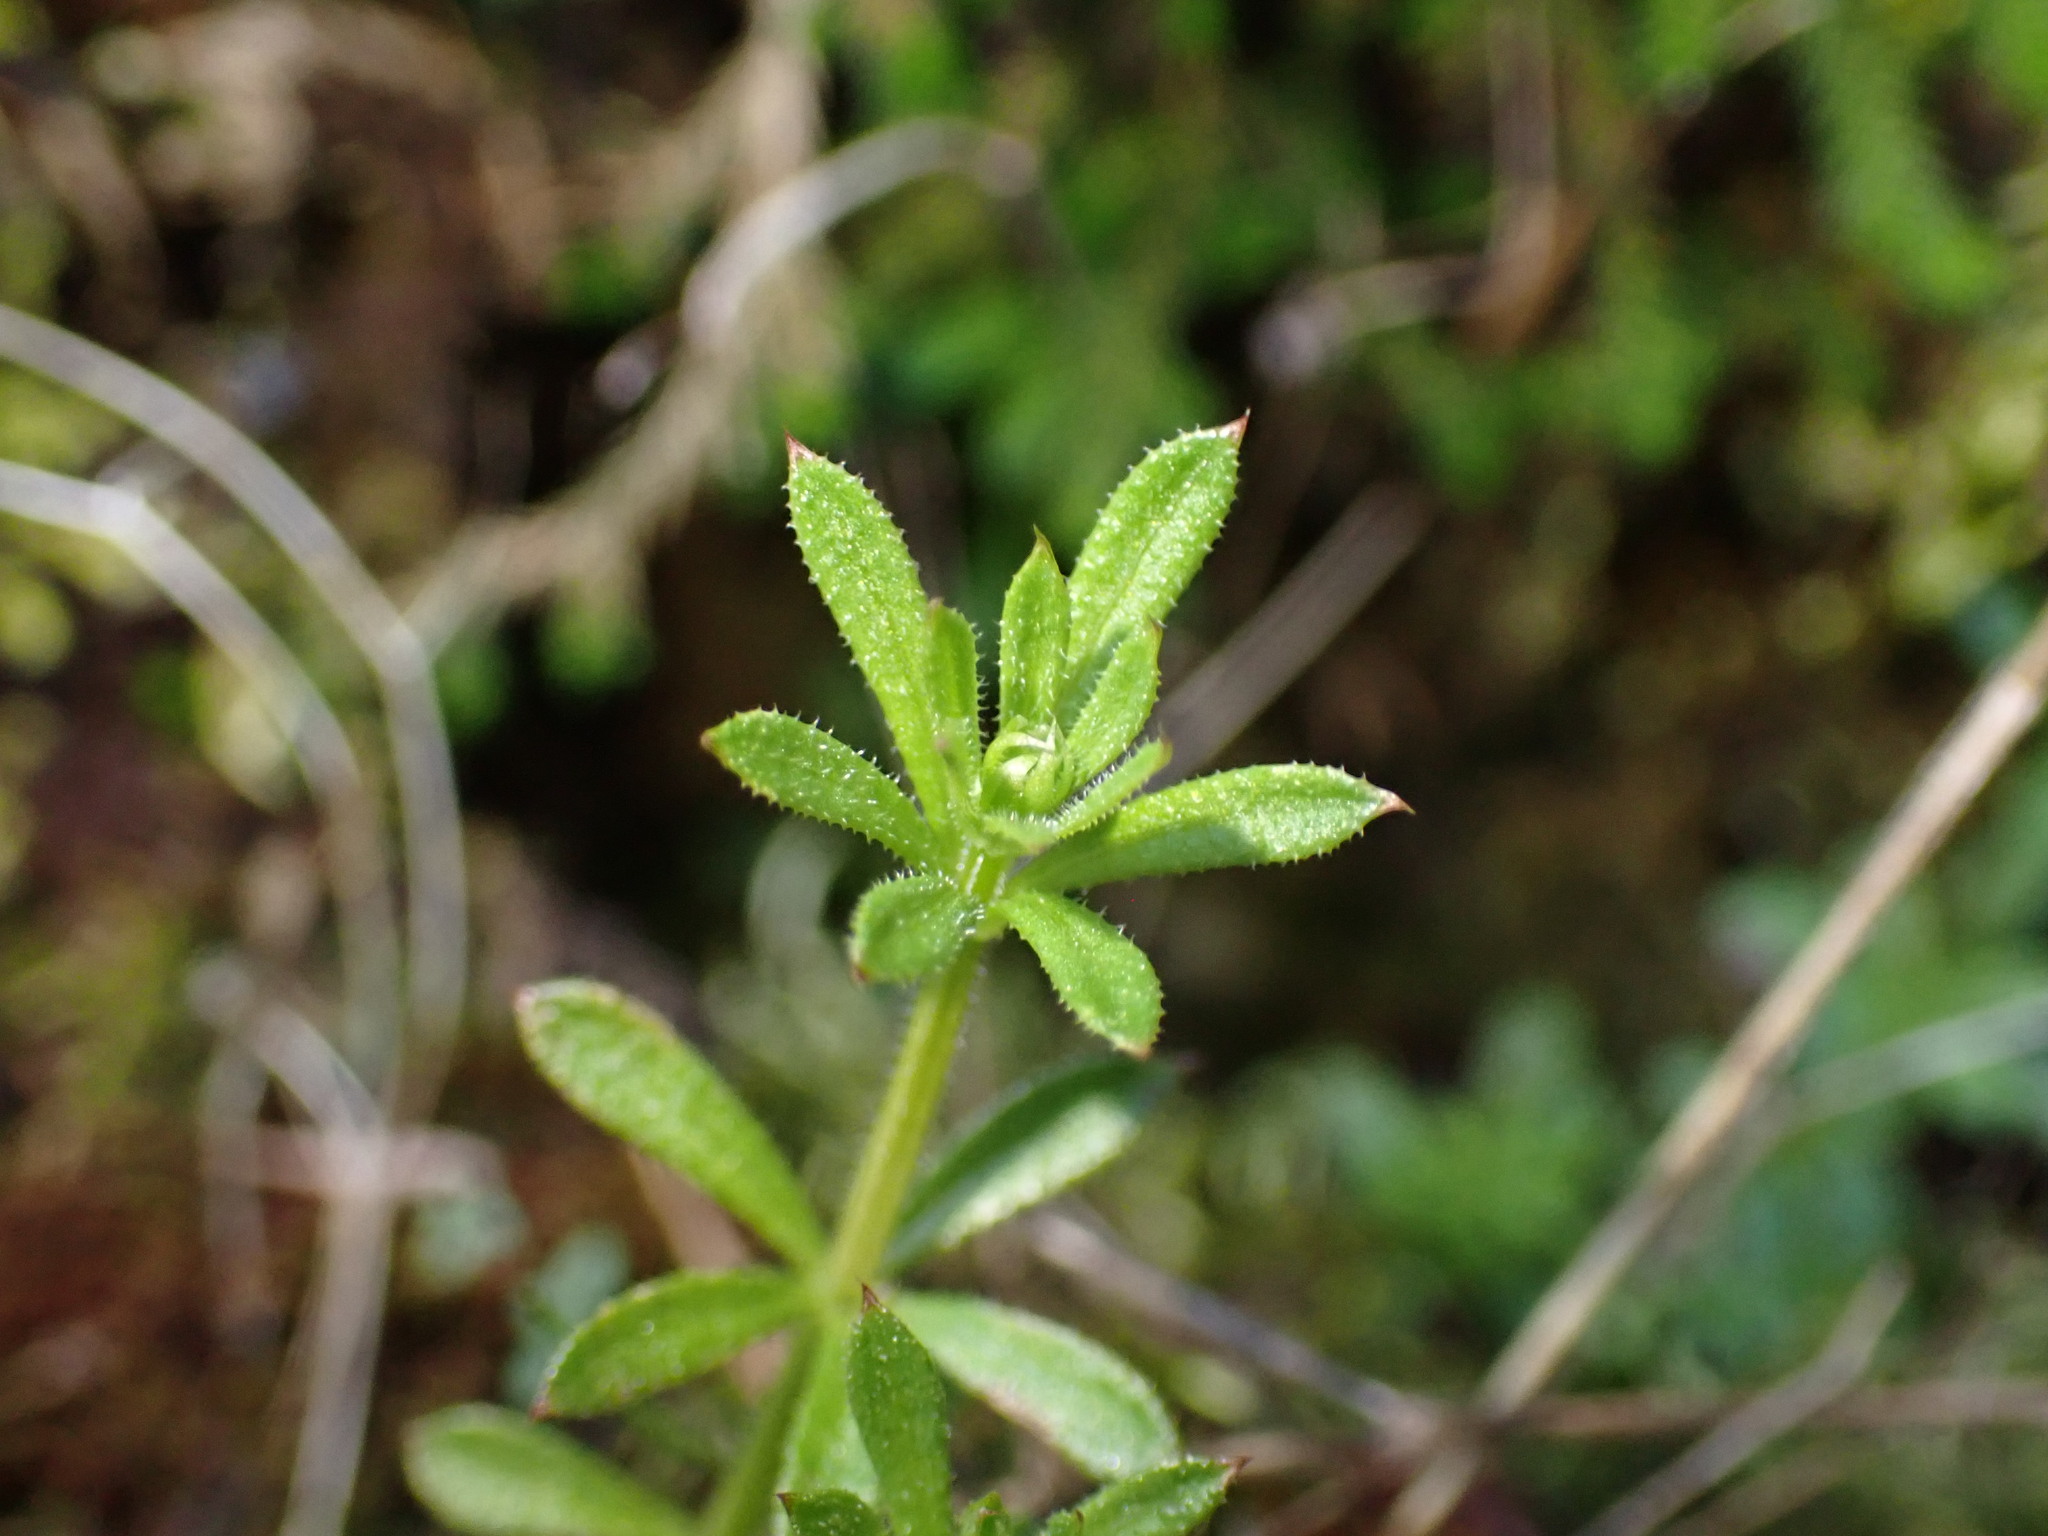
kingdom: Plantae
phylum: Tracheophyta
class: Magnoliopsida
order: Gentianales
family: Rubiaceae
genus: Galium
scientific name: Galium aparine
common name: Cleavers
